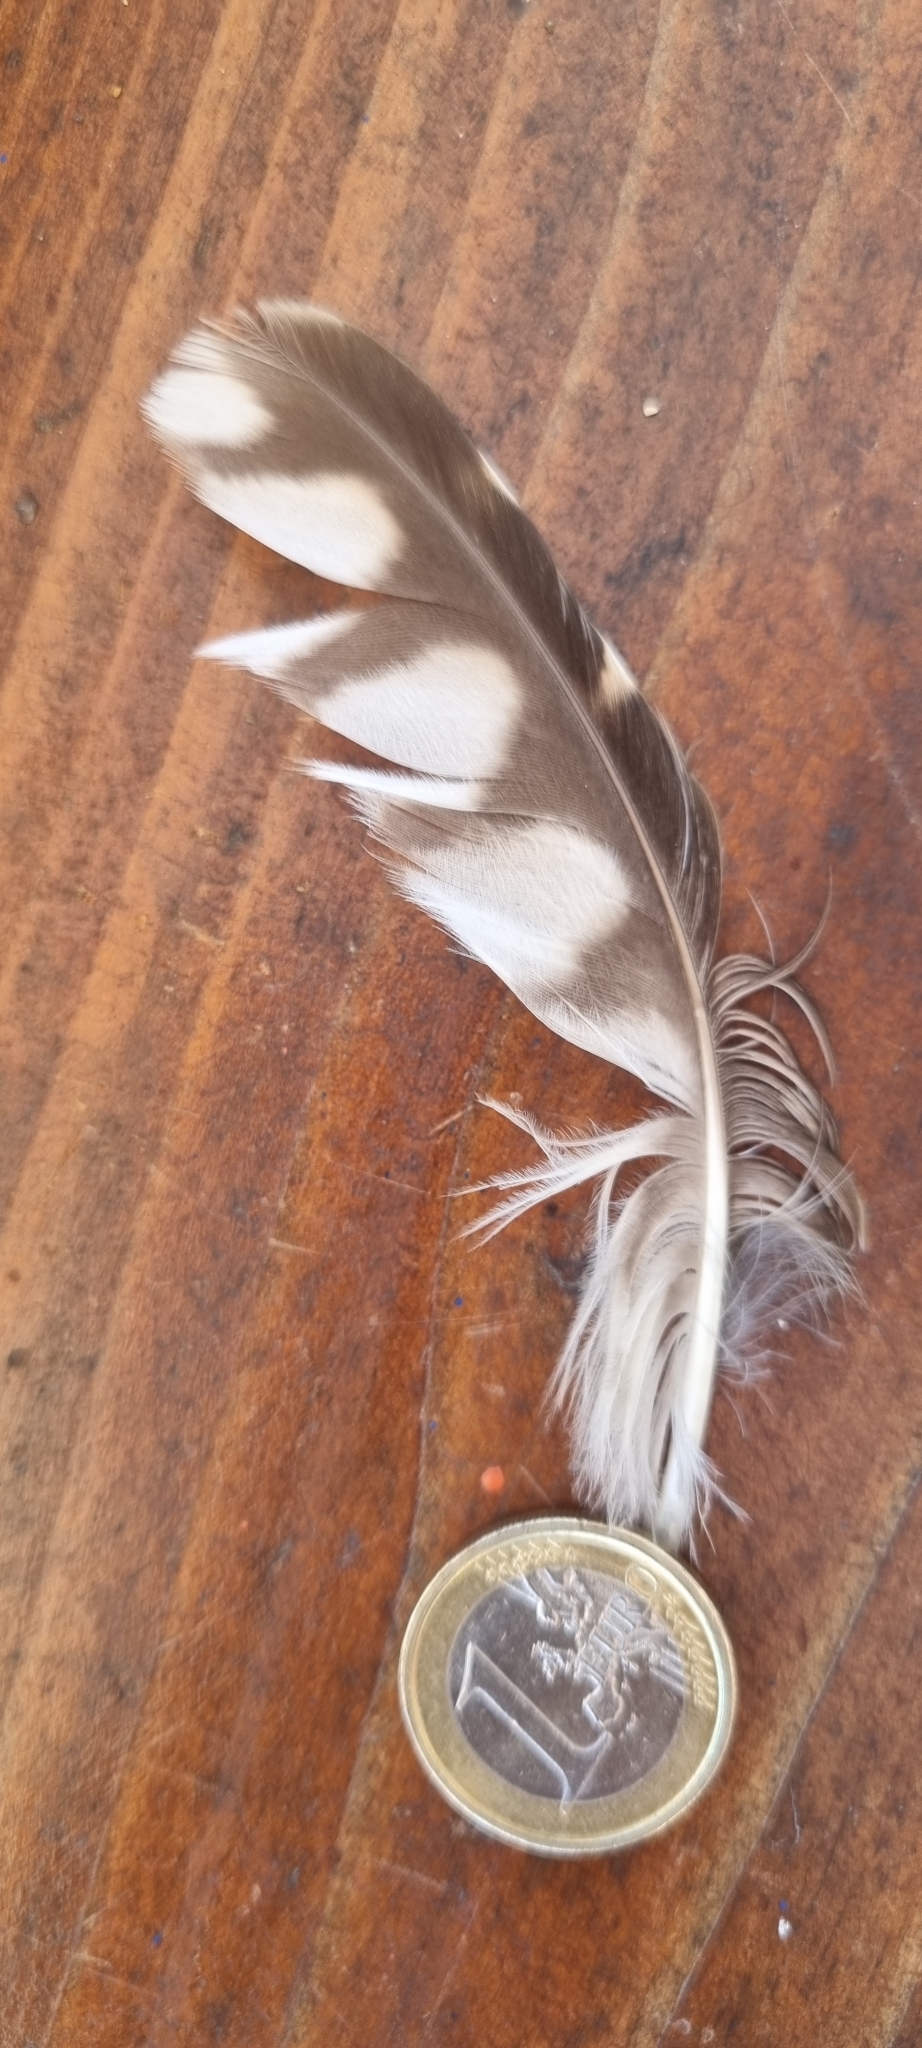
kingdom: Animalia
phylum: Chordata
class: Aves
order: Strigiformes
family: Strigidae
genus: Athene
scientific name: Athene noctua
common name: Little owl
